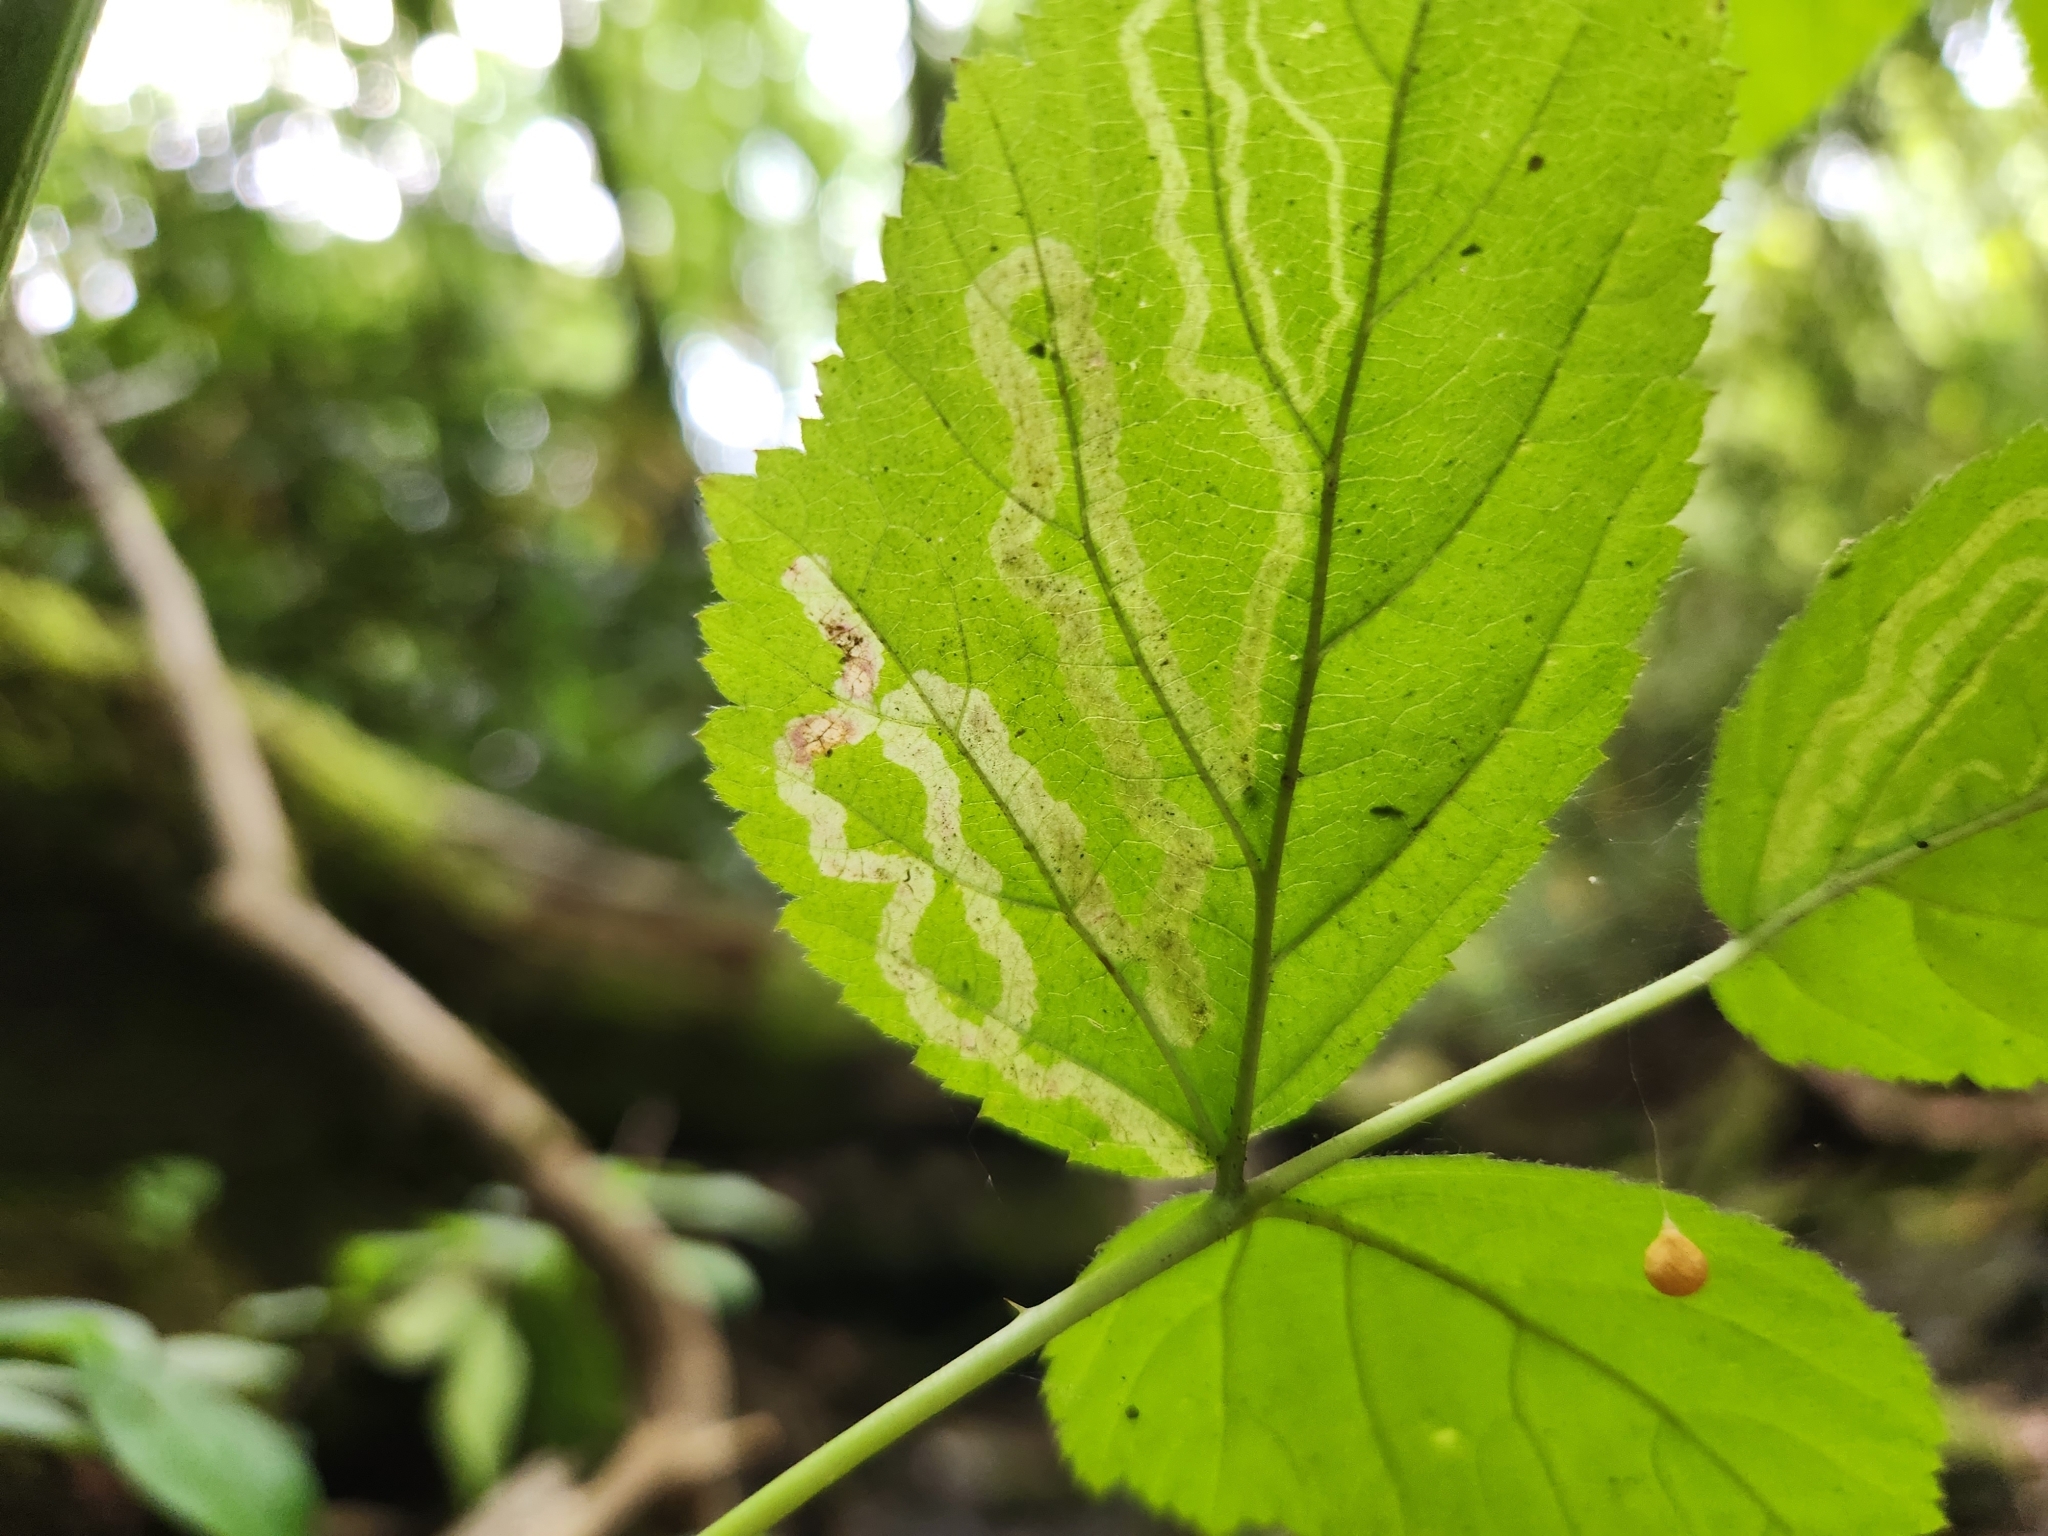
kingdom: Animalia
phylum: Arthropoda
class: Insecta
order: Diptera
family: Agromyzidae
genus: Agromyza
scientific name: Agromyza vockerothi
